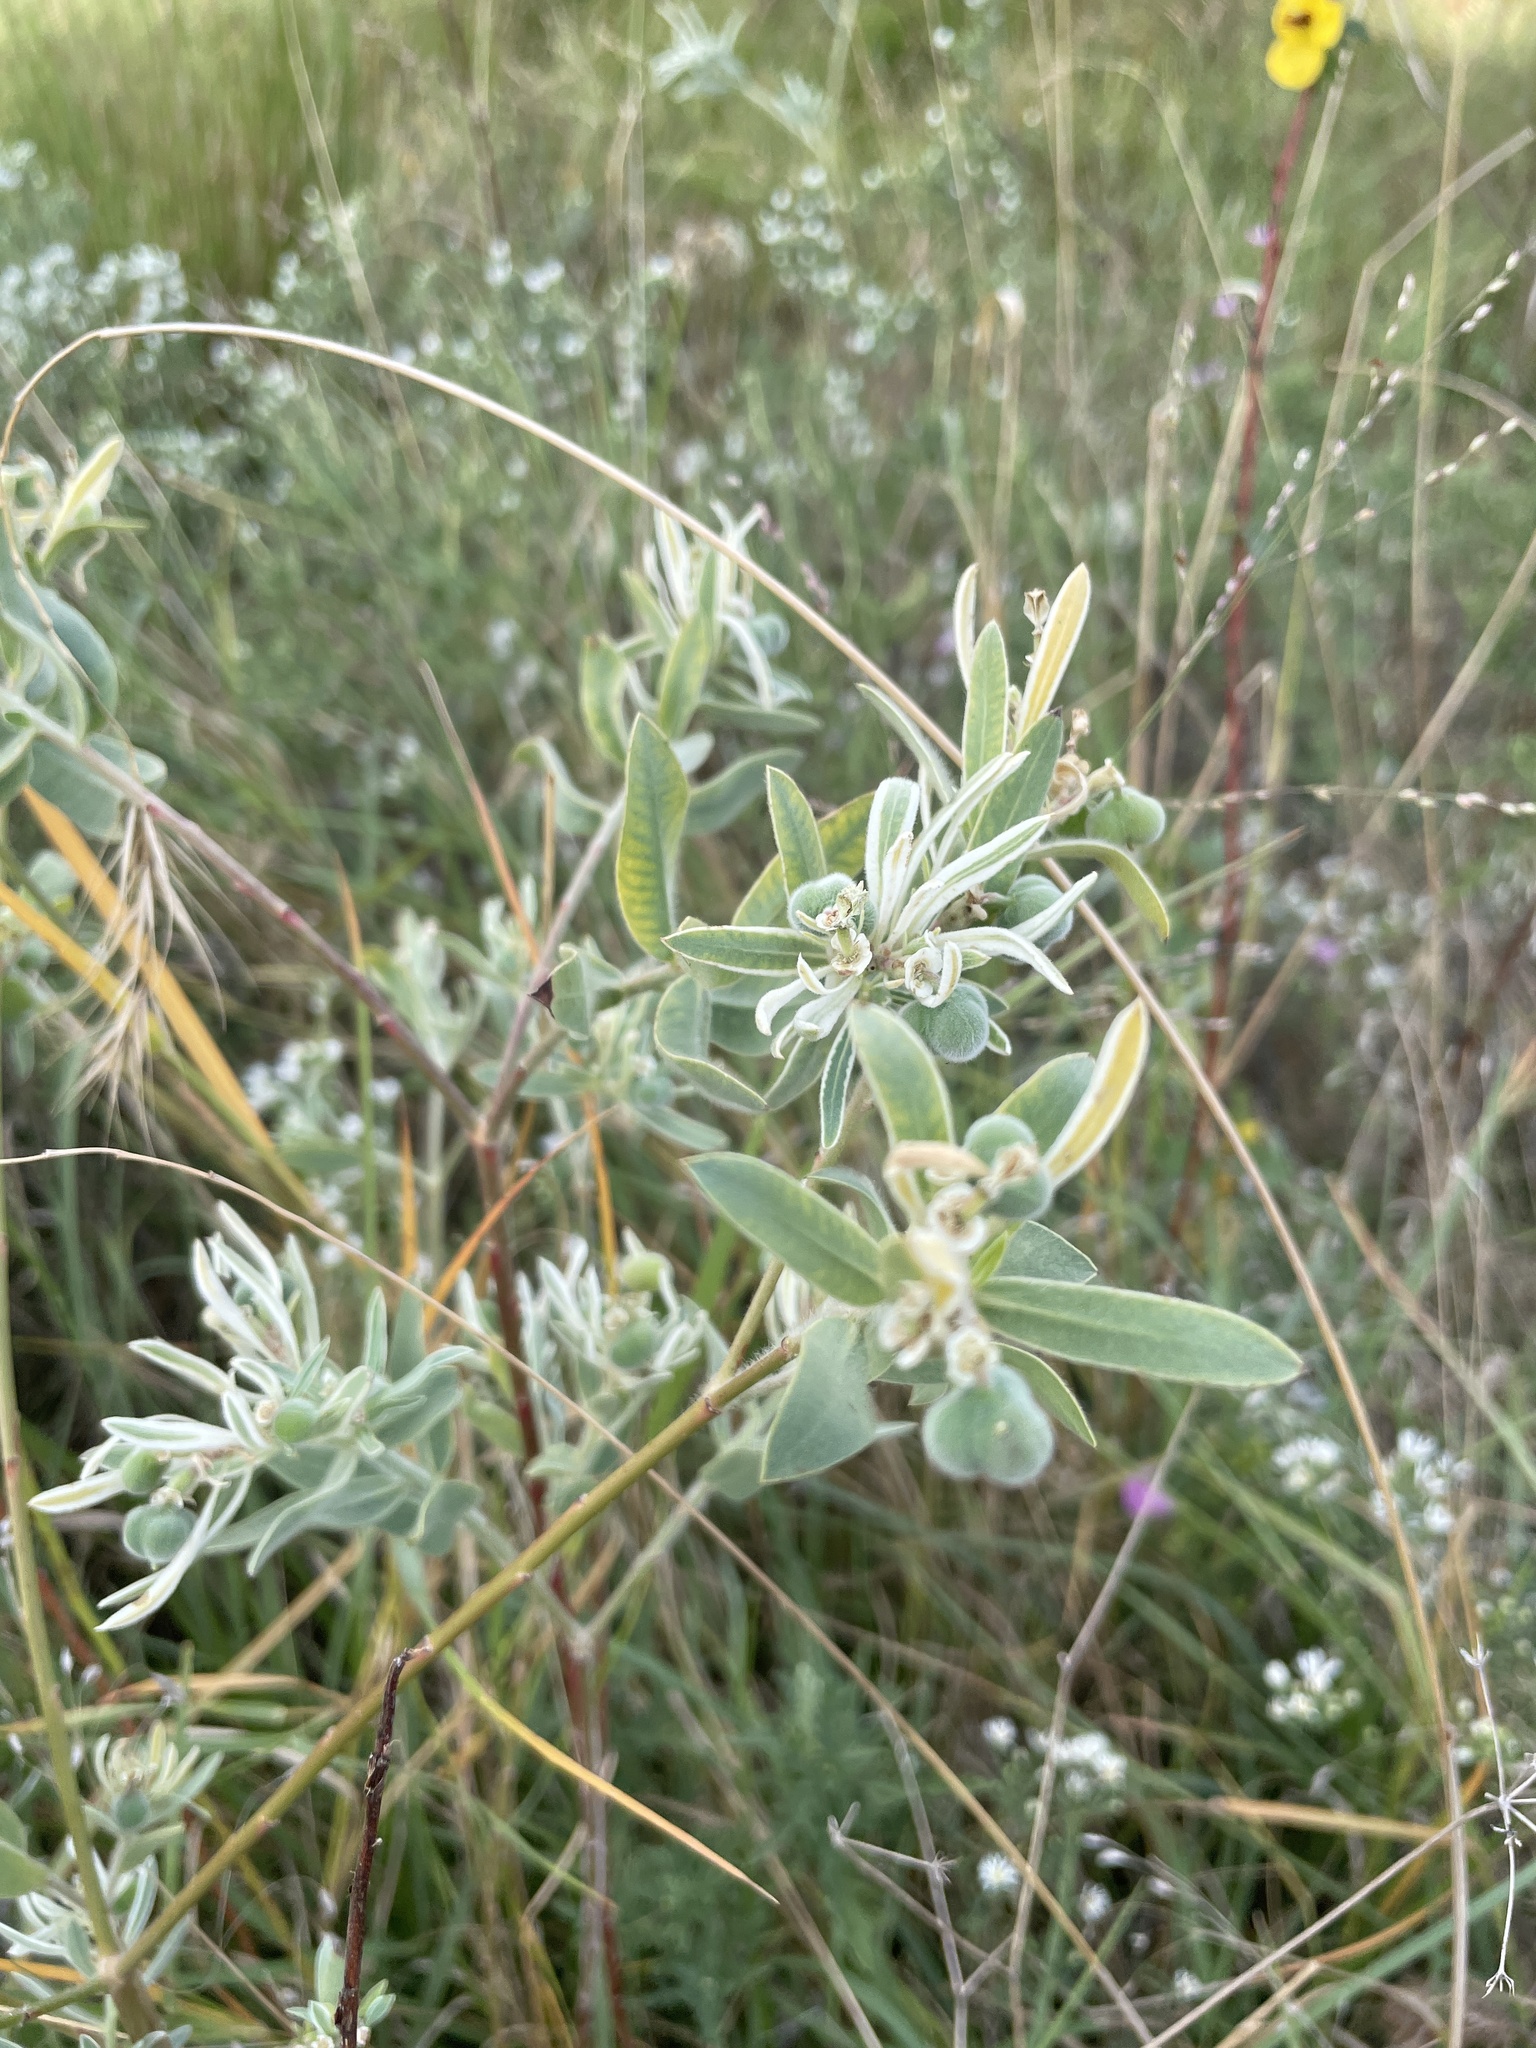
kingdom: Plantae
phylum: Tracheophyta
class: Magnoliopsida
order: Malpighiales
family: Euphorbiaceae
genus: Euphorbia
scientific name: Euphorbia bicolor
